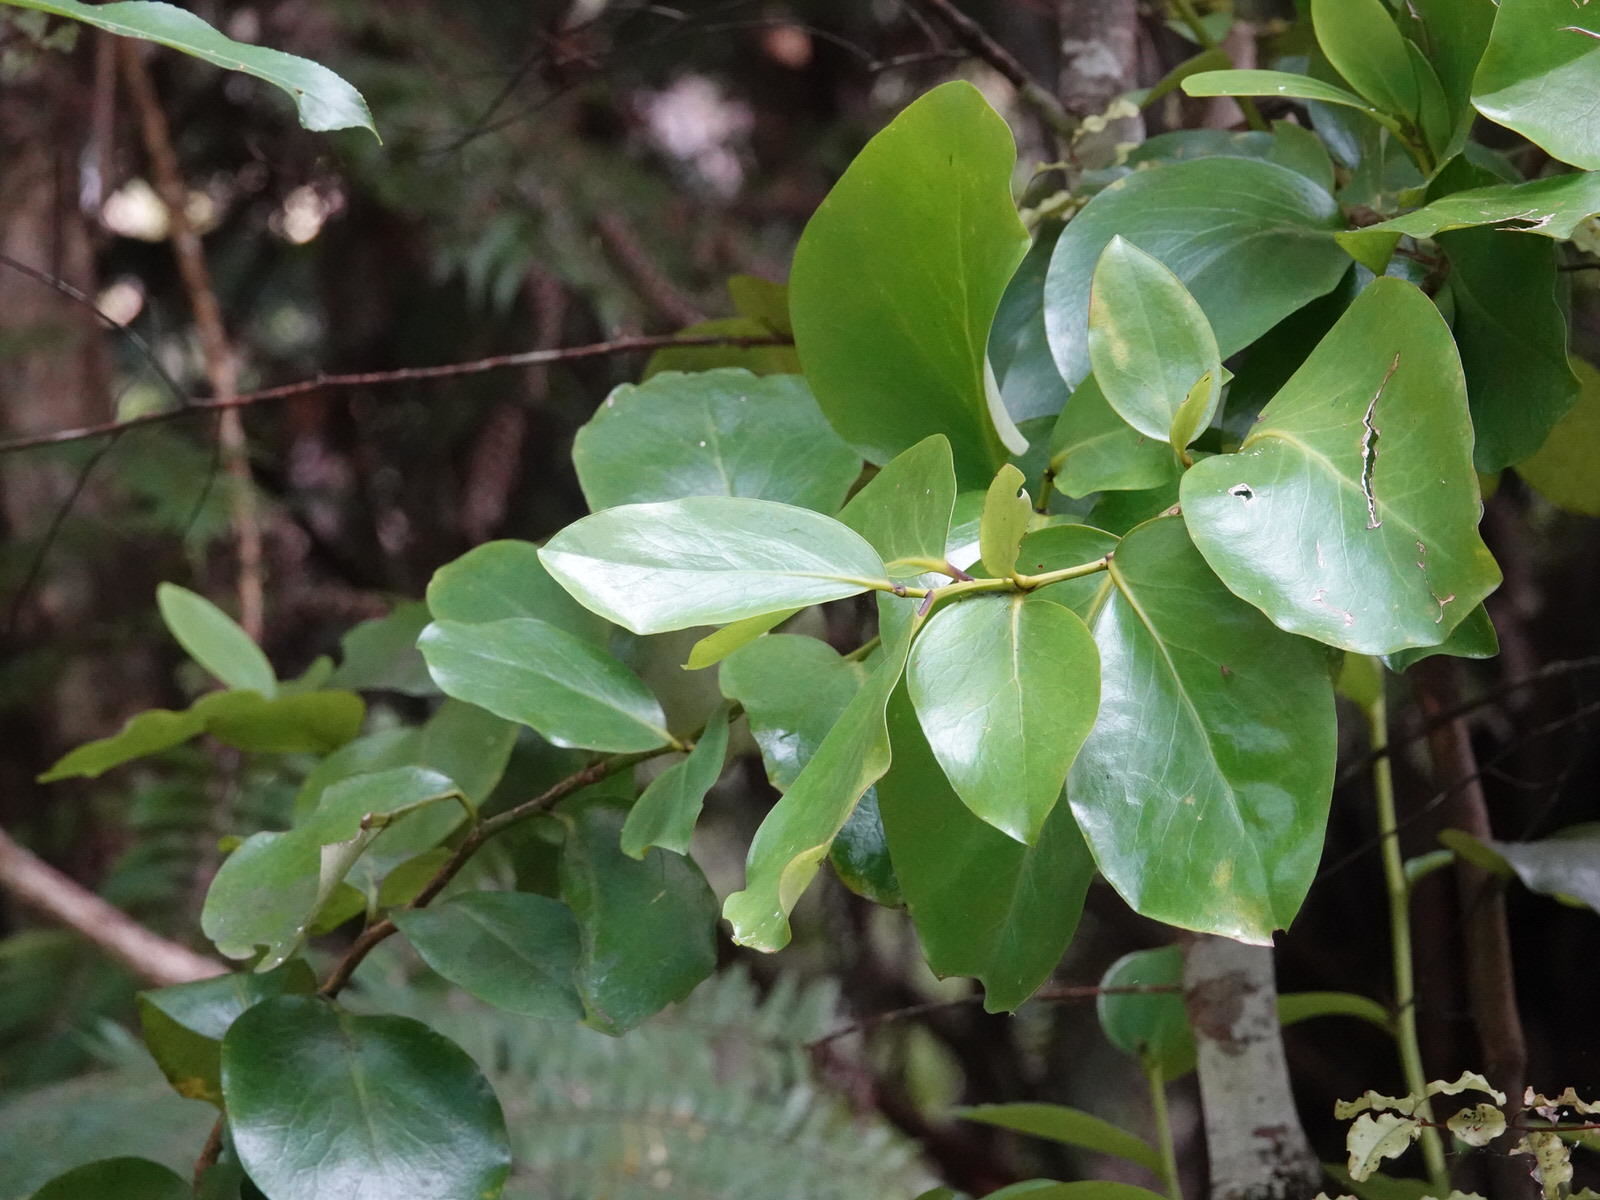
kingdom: Plantae
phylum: Tracheophyta
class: Magnoliopsida
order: Apiales
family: Griseliniaceae
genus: Griselinia
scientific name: Griselinia lucida
